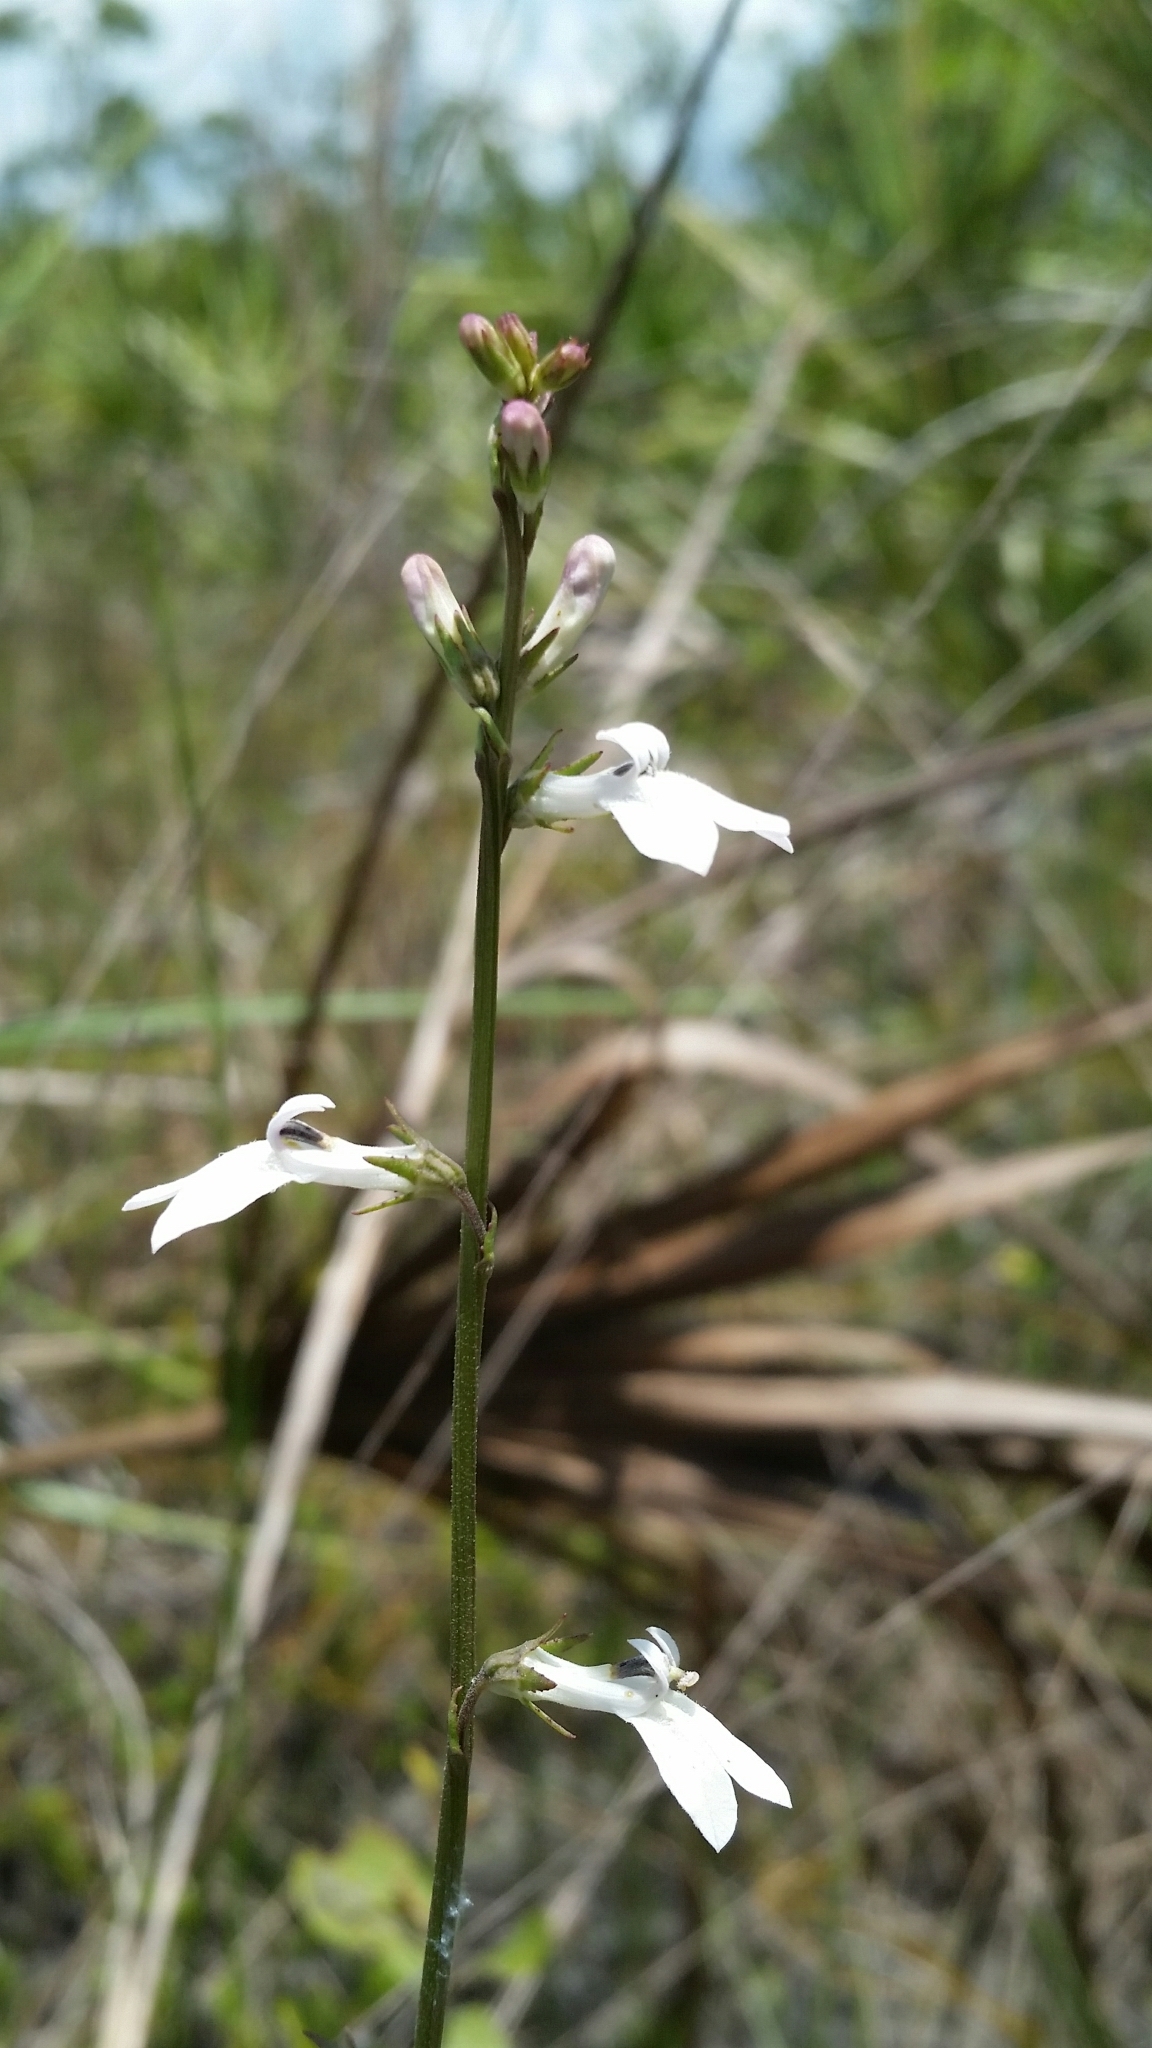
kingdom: Plantae
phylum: Tracheophyta
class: Magnoliopsida
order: Asterales
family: Campanulaceae
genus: Lobelia
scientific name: Lobelia paludosa
